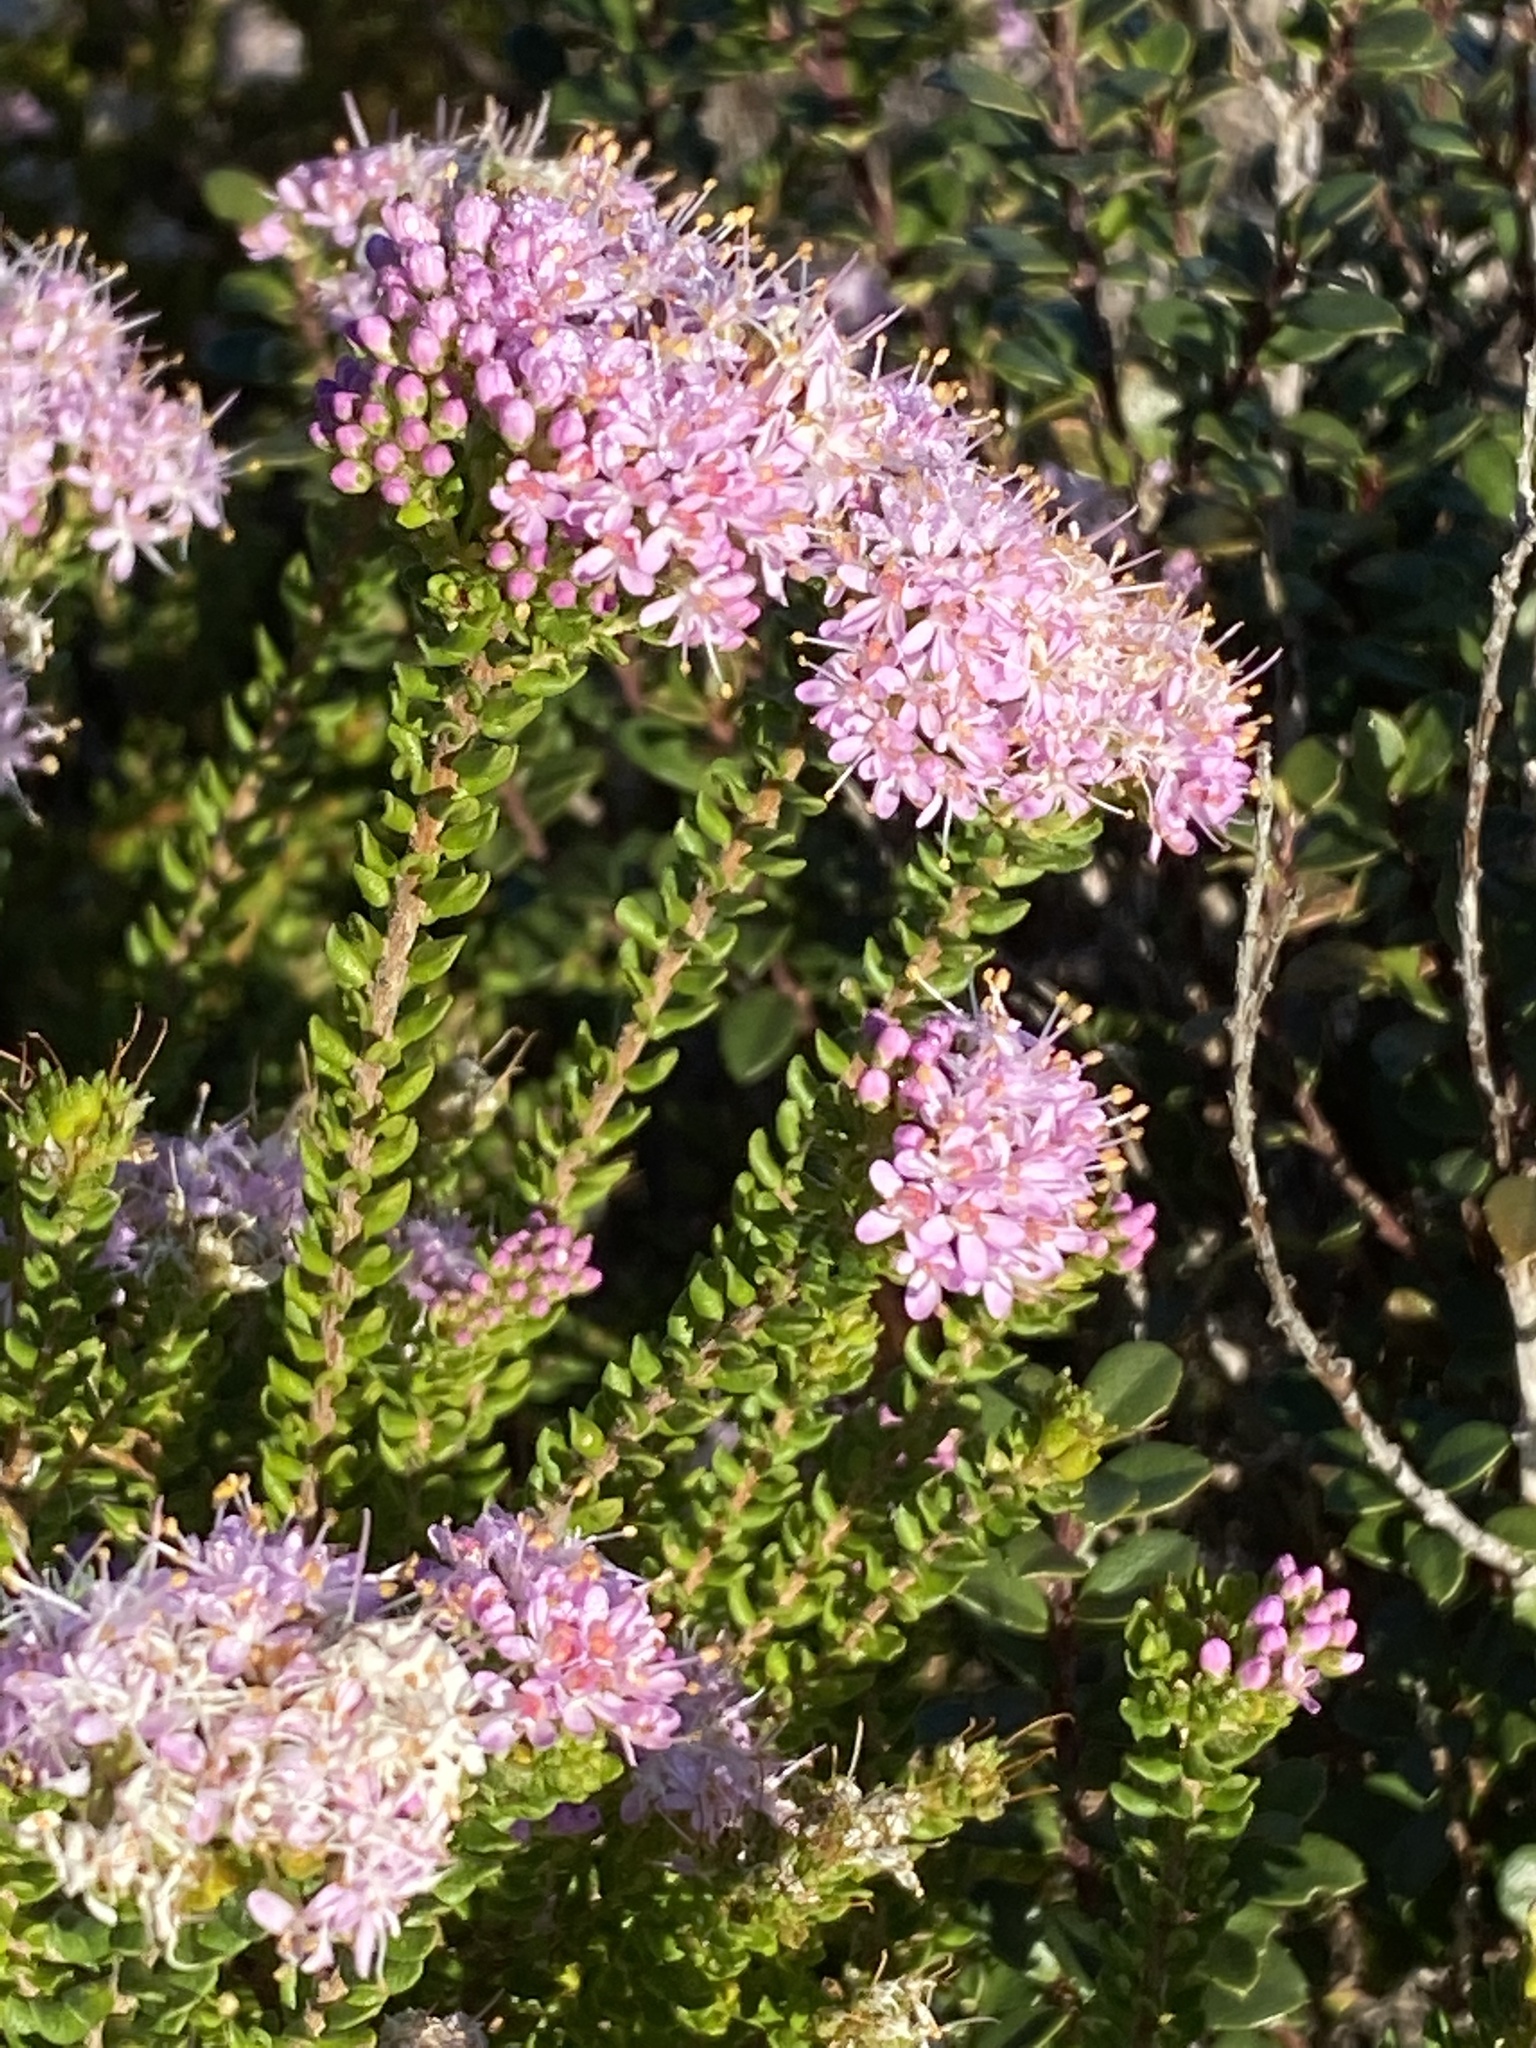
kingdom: Plantae
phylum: Tracheophyta
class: Magnoliopsida
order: Sapindales
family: Rutaceae
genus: Agathosma
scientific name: Agathosma capensis
